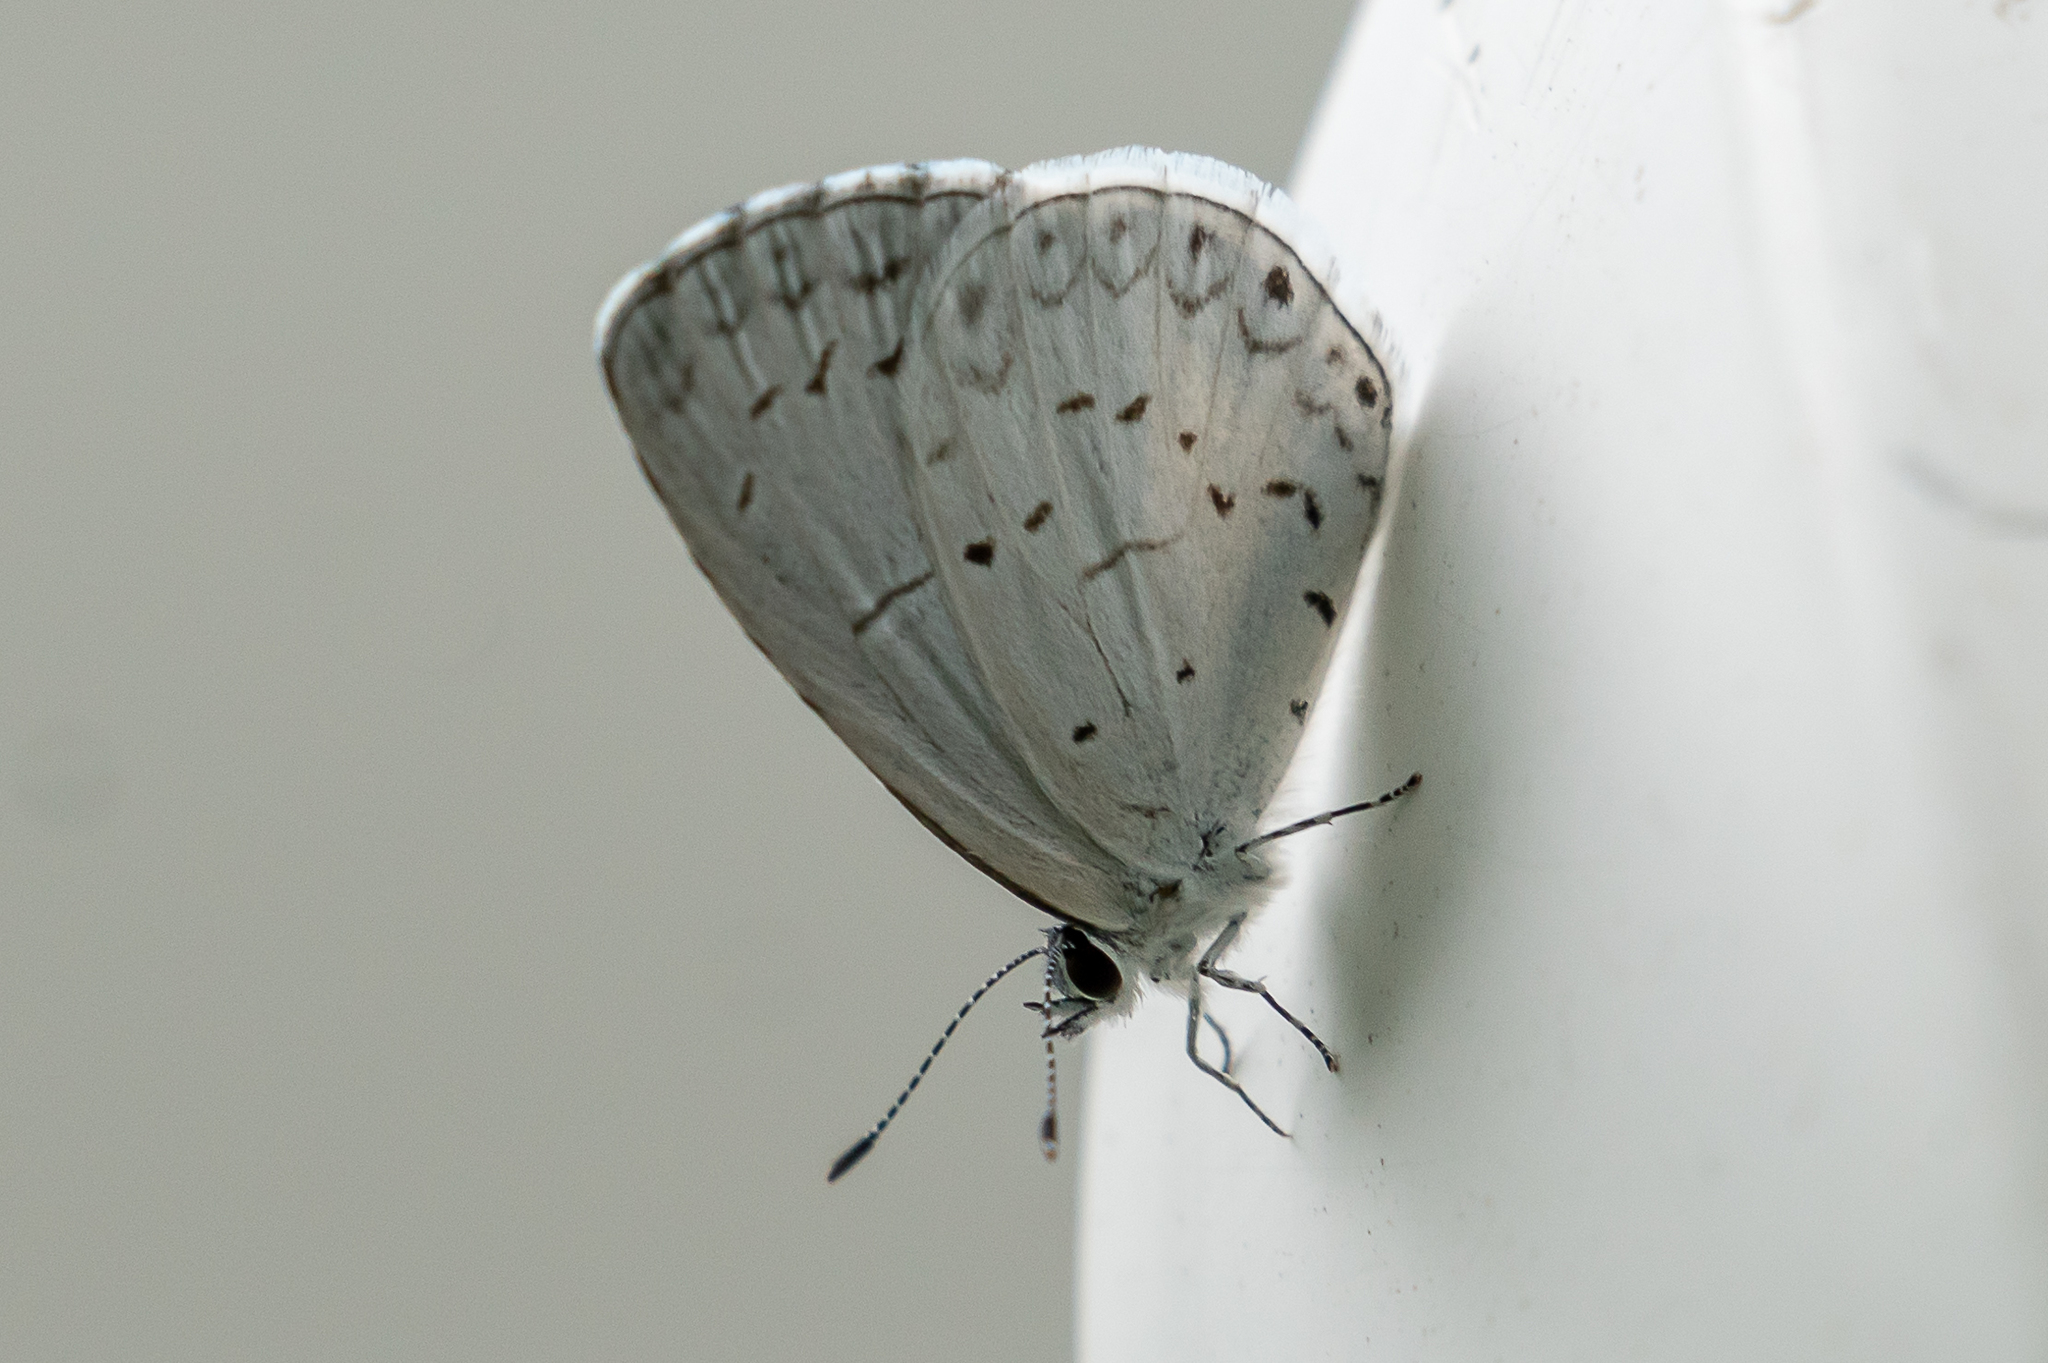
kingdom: Animalia
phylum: Arthropoda
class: Insecta
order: Lepidoptera
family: Lycaenidae
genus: Cyaniris
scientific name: Cyaniris neglecta
